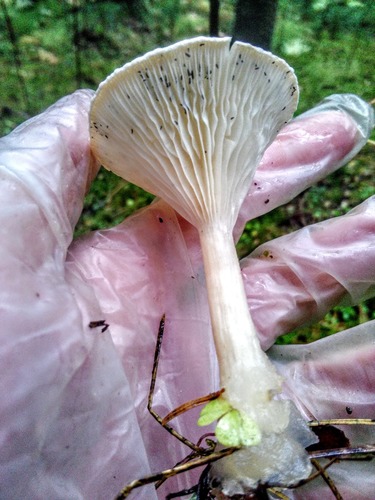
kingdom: Fungi
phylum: Basidiomycota
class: Agaricomycetes
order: Agaricales
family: Tricholomataceae
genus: Infundibulicybe
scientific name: Infundibulicybe gibba
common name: Common funnel
